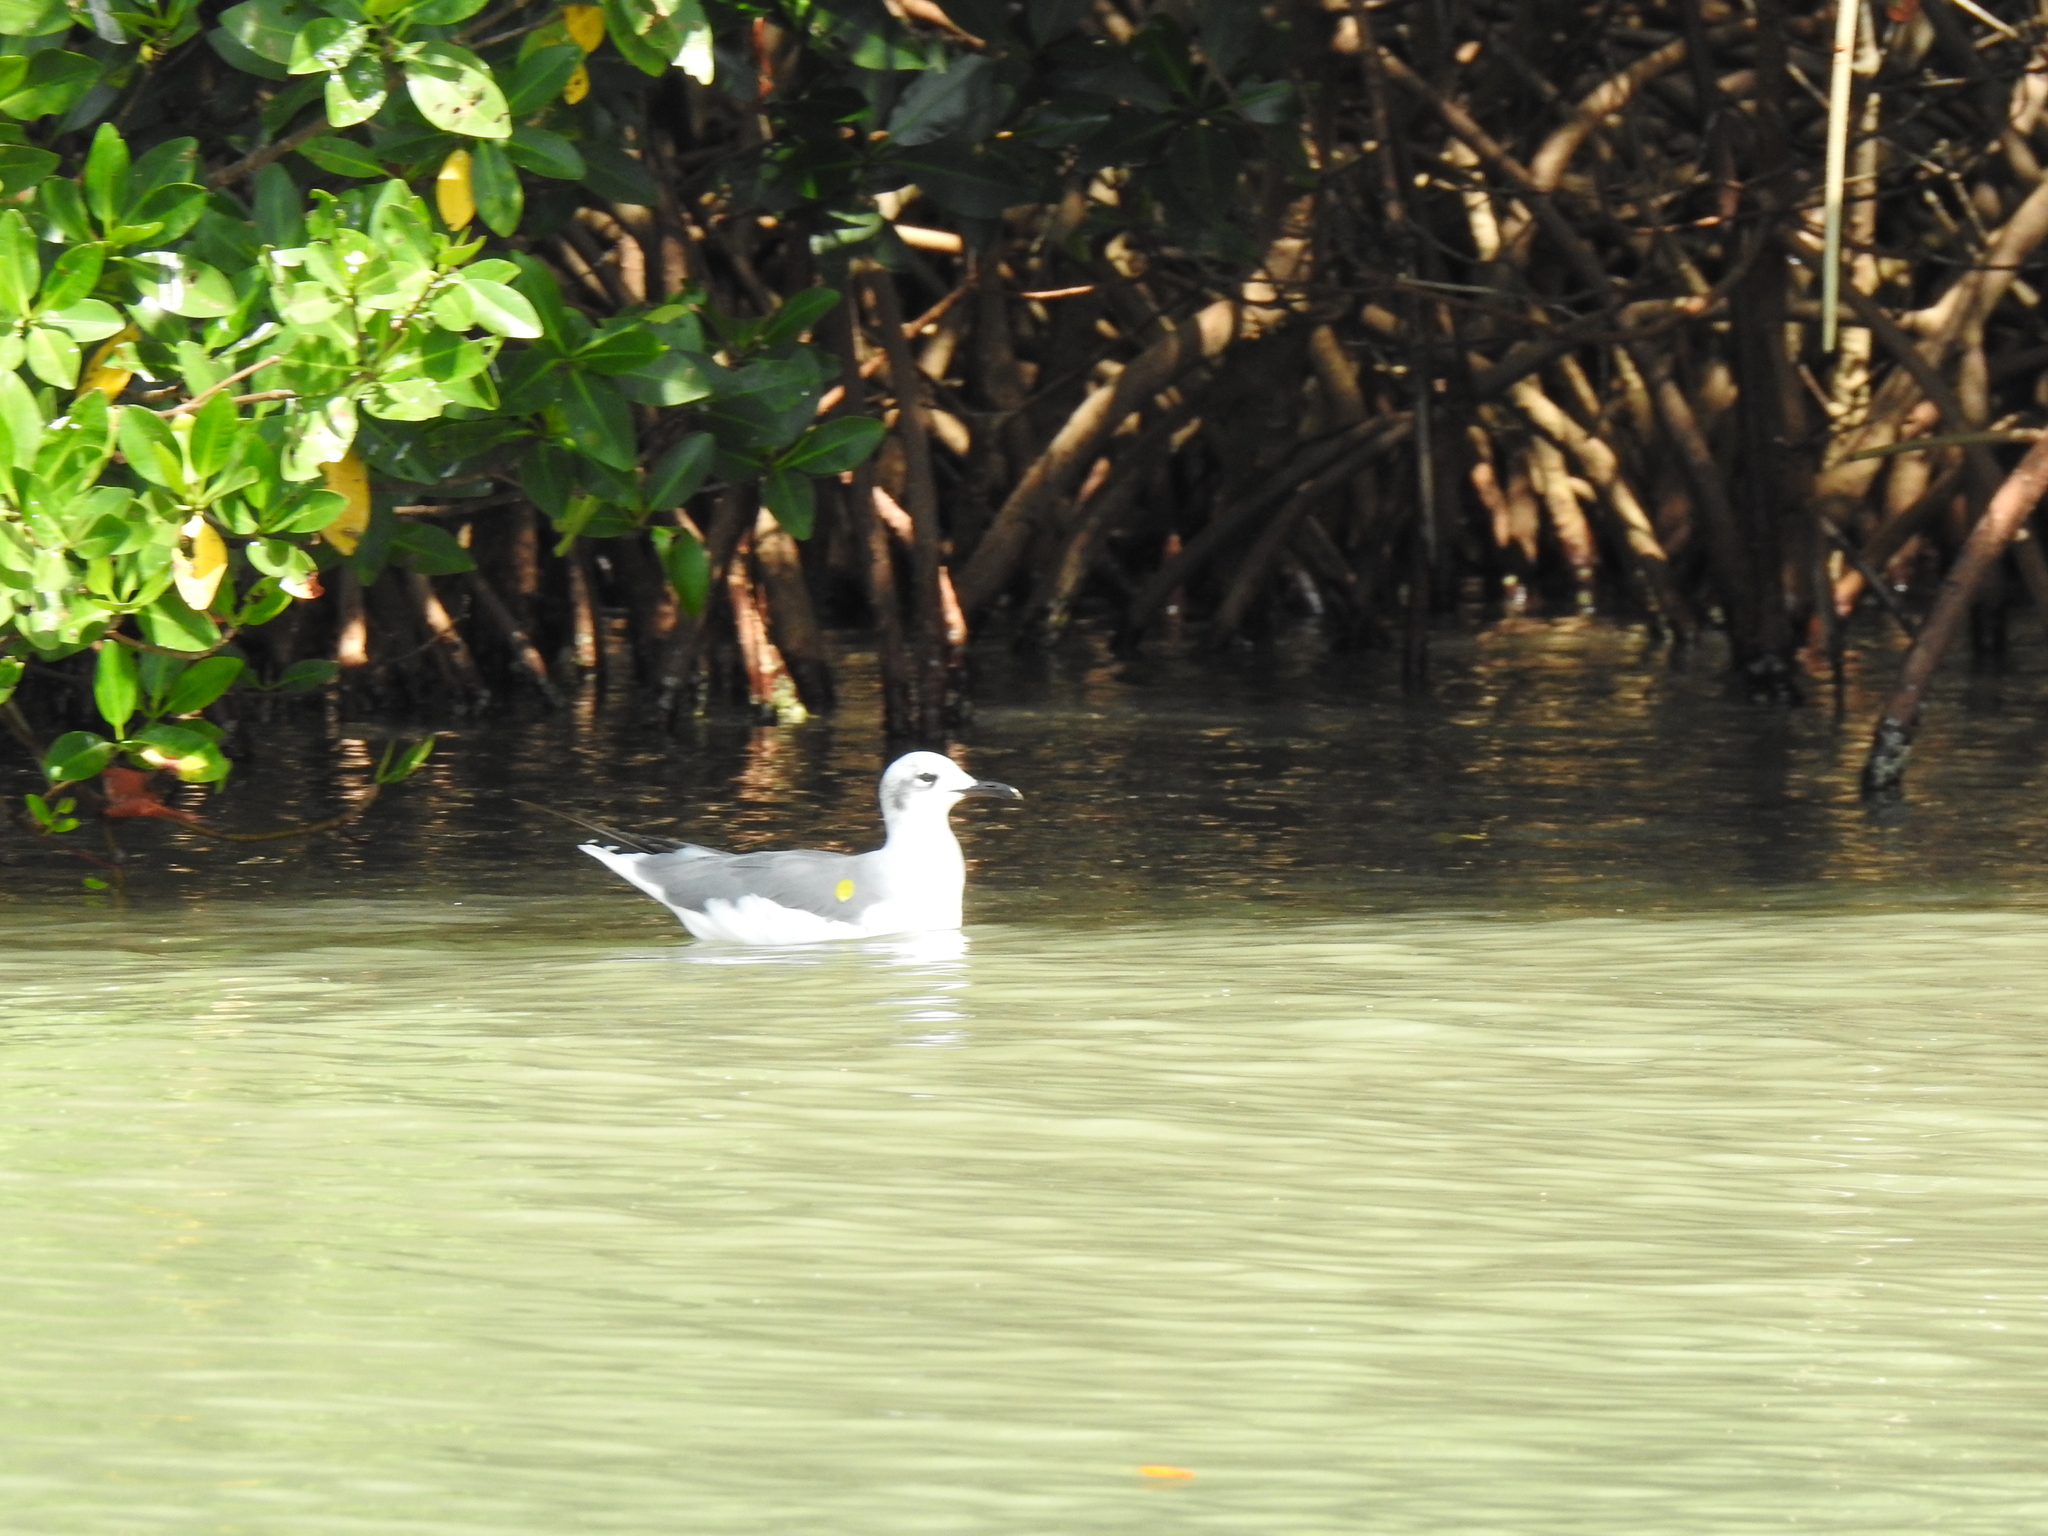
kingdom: Animalia
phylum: Chordata
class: Aves
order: Charadriiformes
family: Laridae
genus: Leucophaeus
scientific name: Leucophaeus atricilla
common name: Laughing gull
